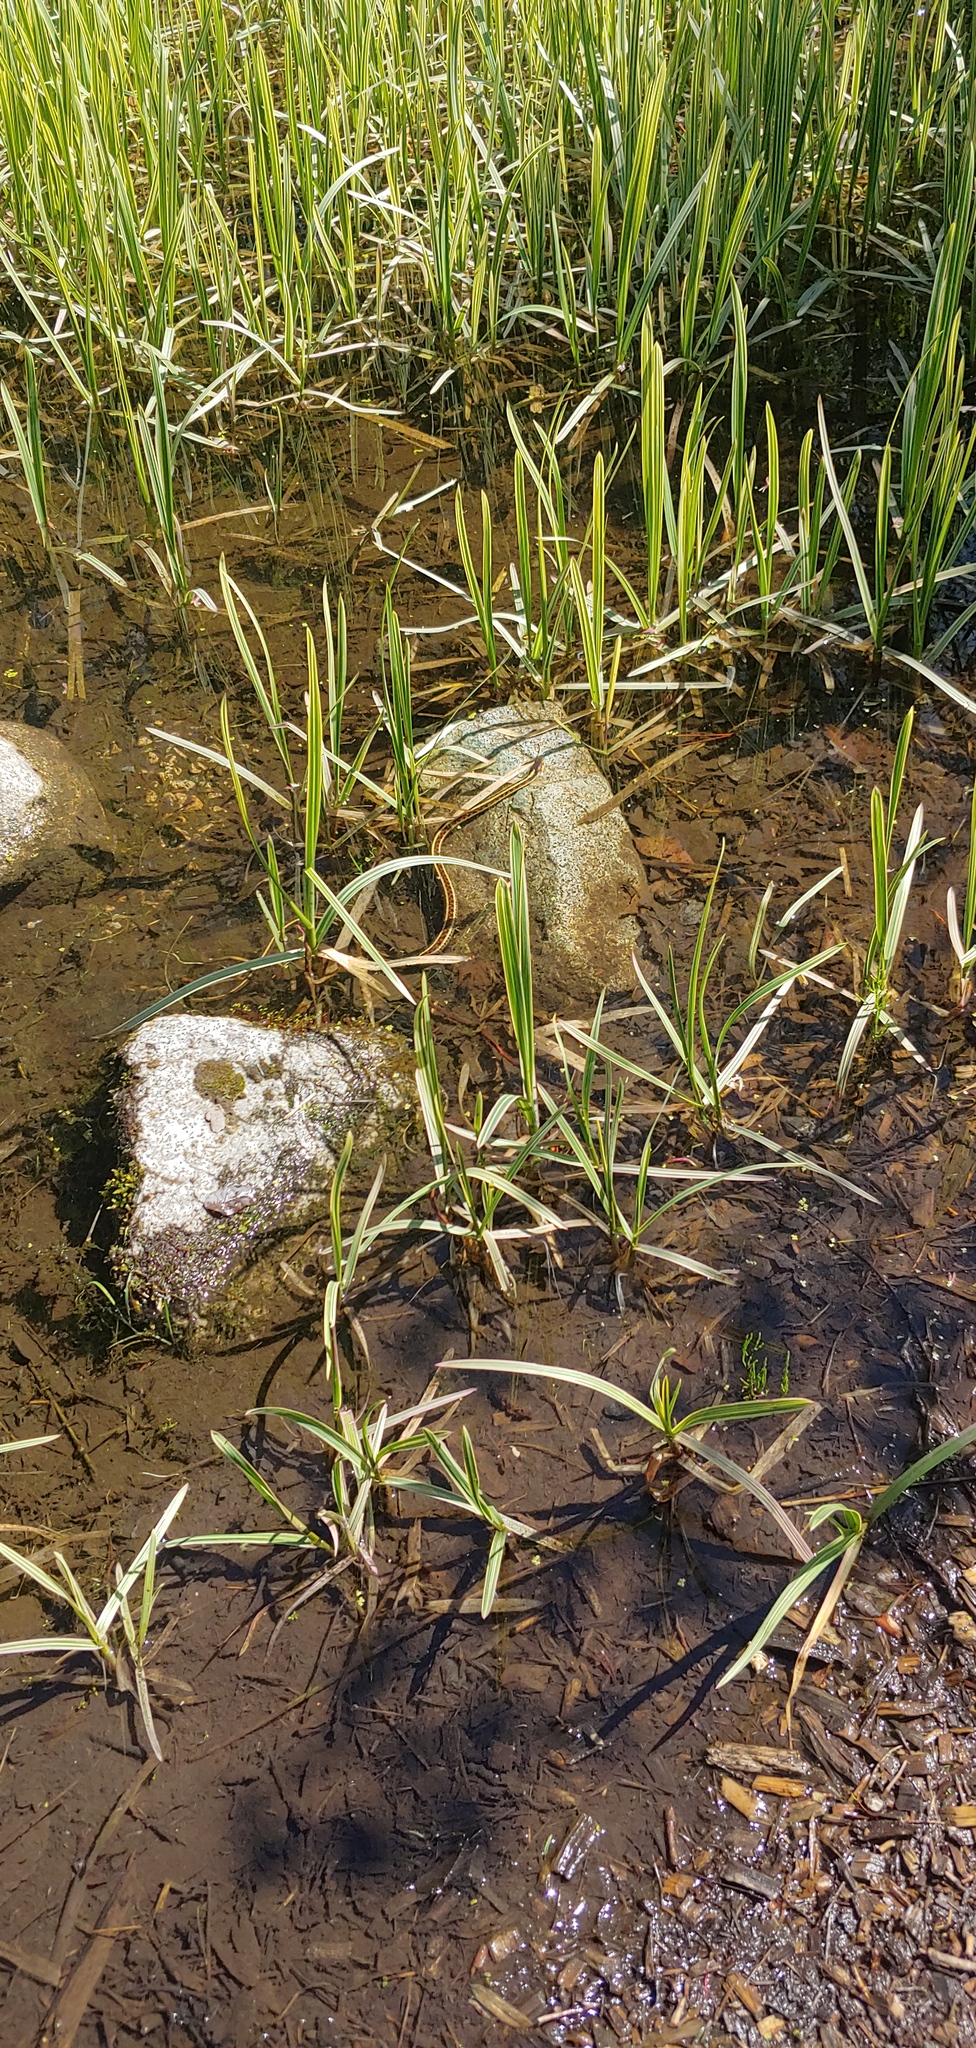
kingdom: Animalia
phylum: Chordata
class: Squamata
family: Colubridae
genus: Thamnophis
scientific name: Thamnophis sirtalis
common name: Common garter snake
